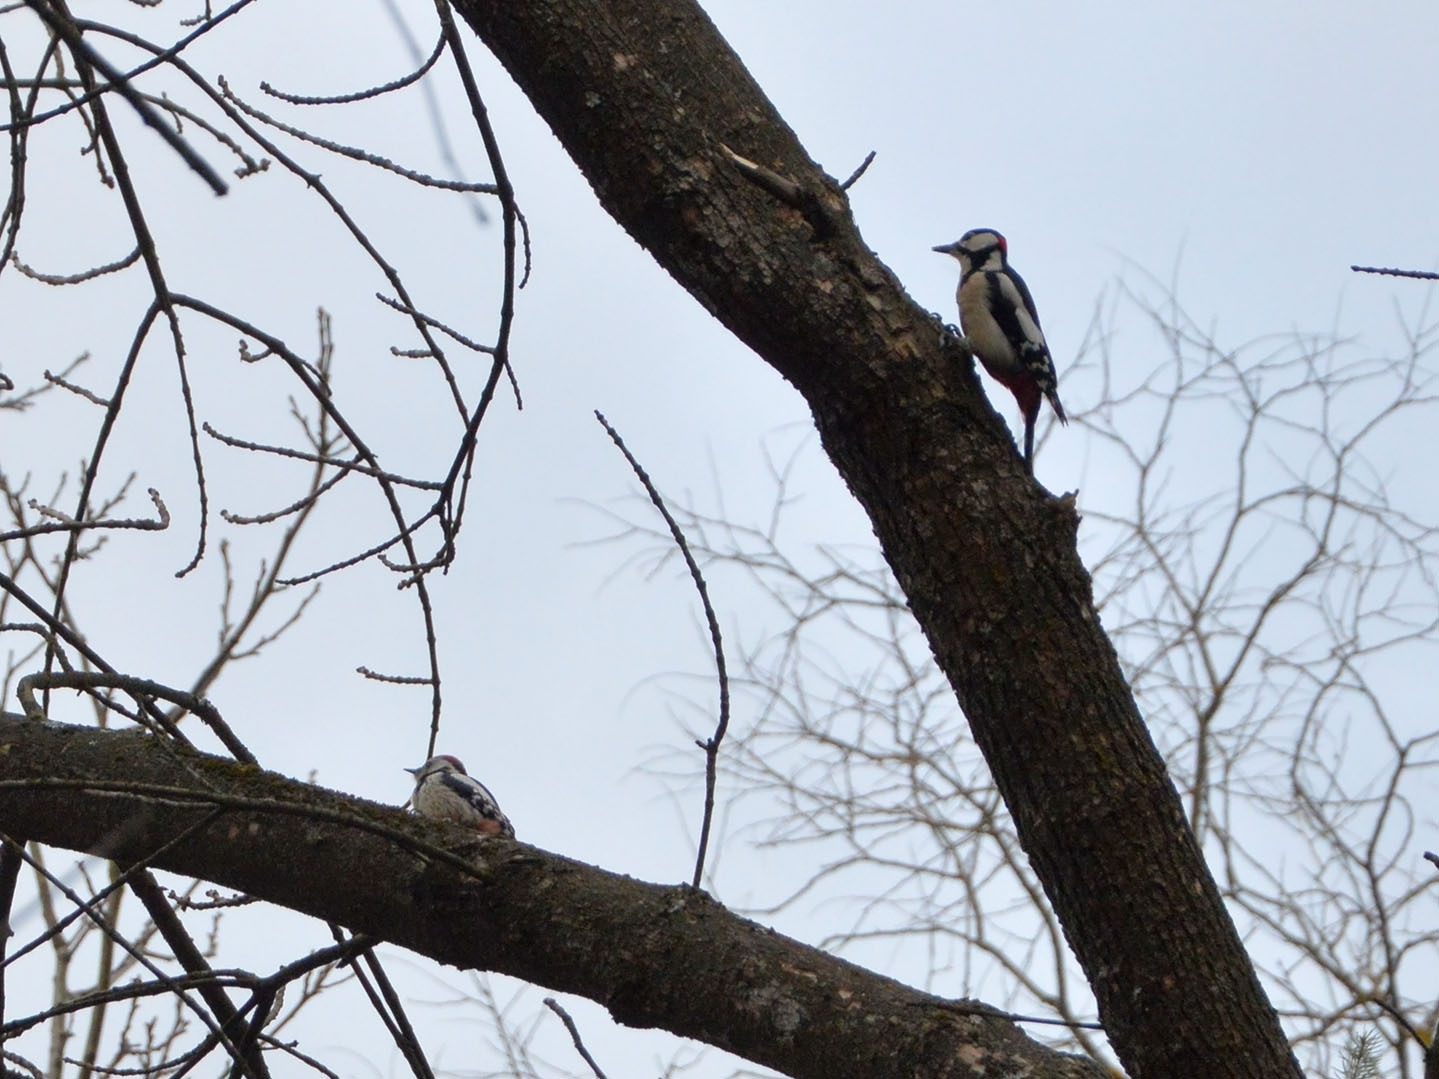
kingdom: Animalia
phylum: Chordata
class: Aves
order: Piciformes
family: Picidae
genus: Dendrocopos
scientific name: Dendrocopos major
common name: Great spotted woodpecker
